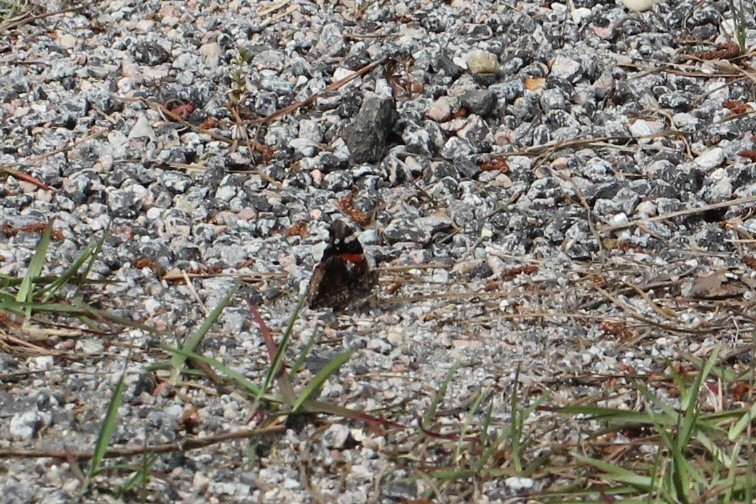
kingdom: Animalia
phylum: Arthropoda
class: Insecta
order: Lepidoptera
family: Nymphalidae
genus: Vanessa
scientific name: Vanessa atalanta
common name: Red admiral
